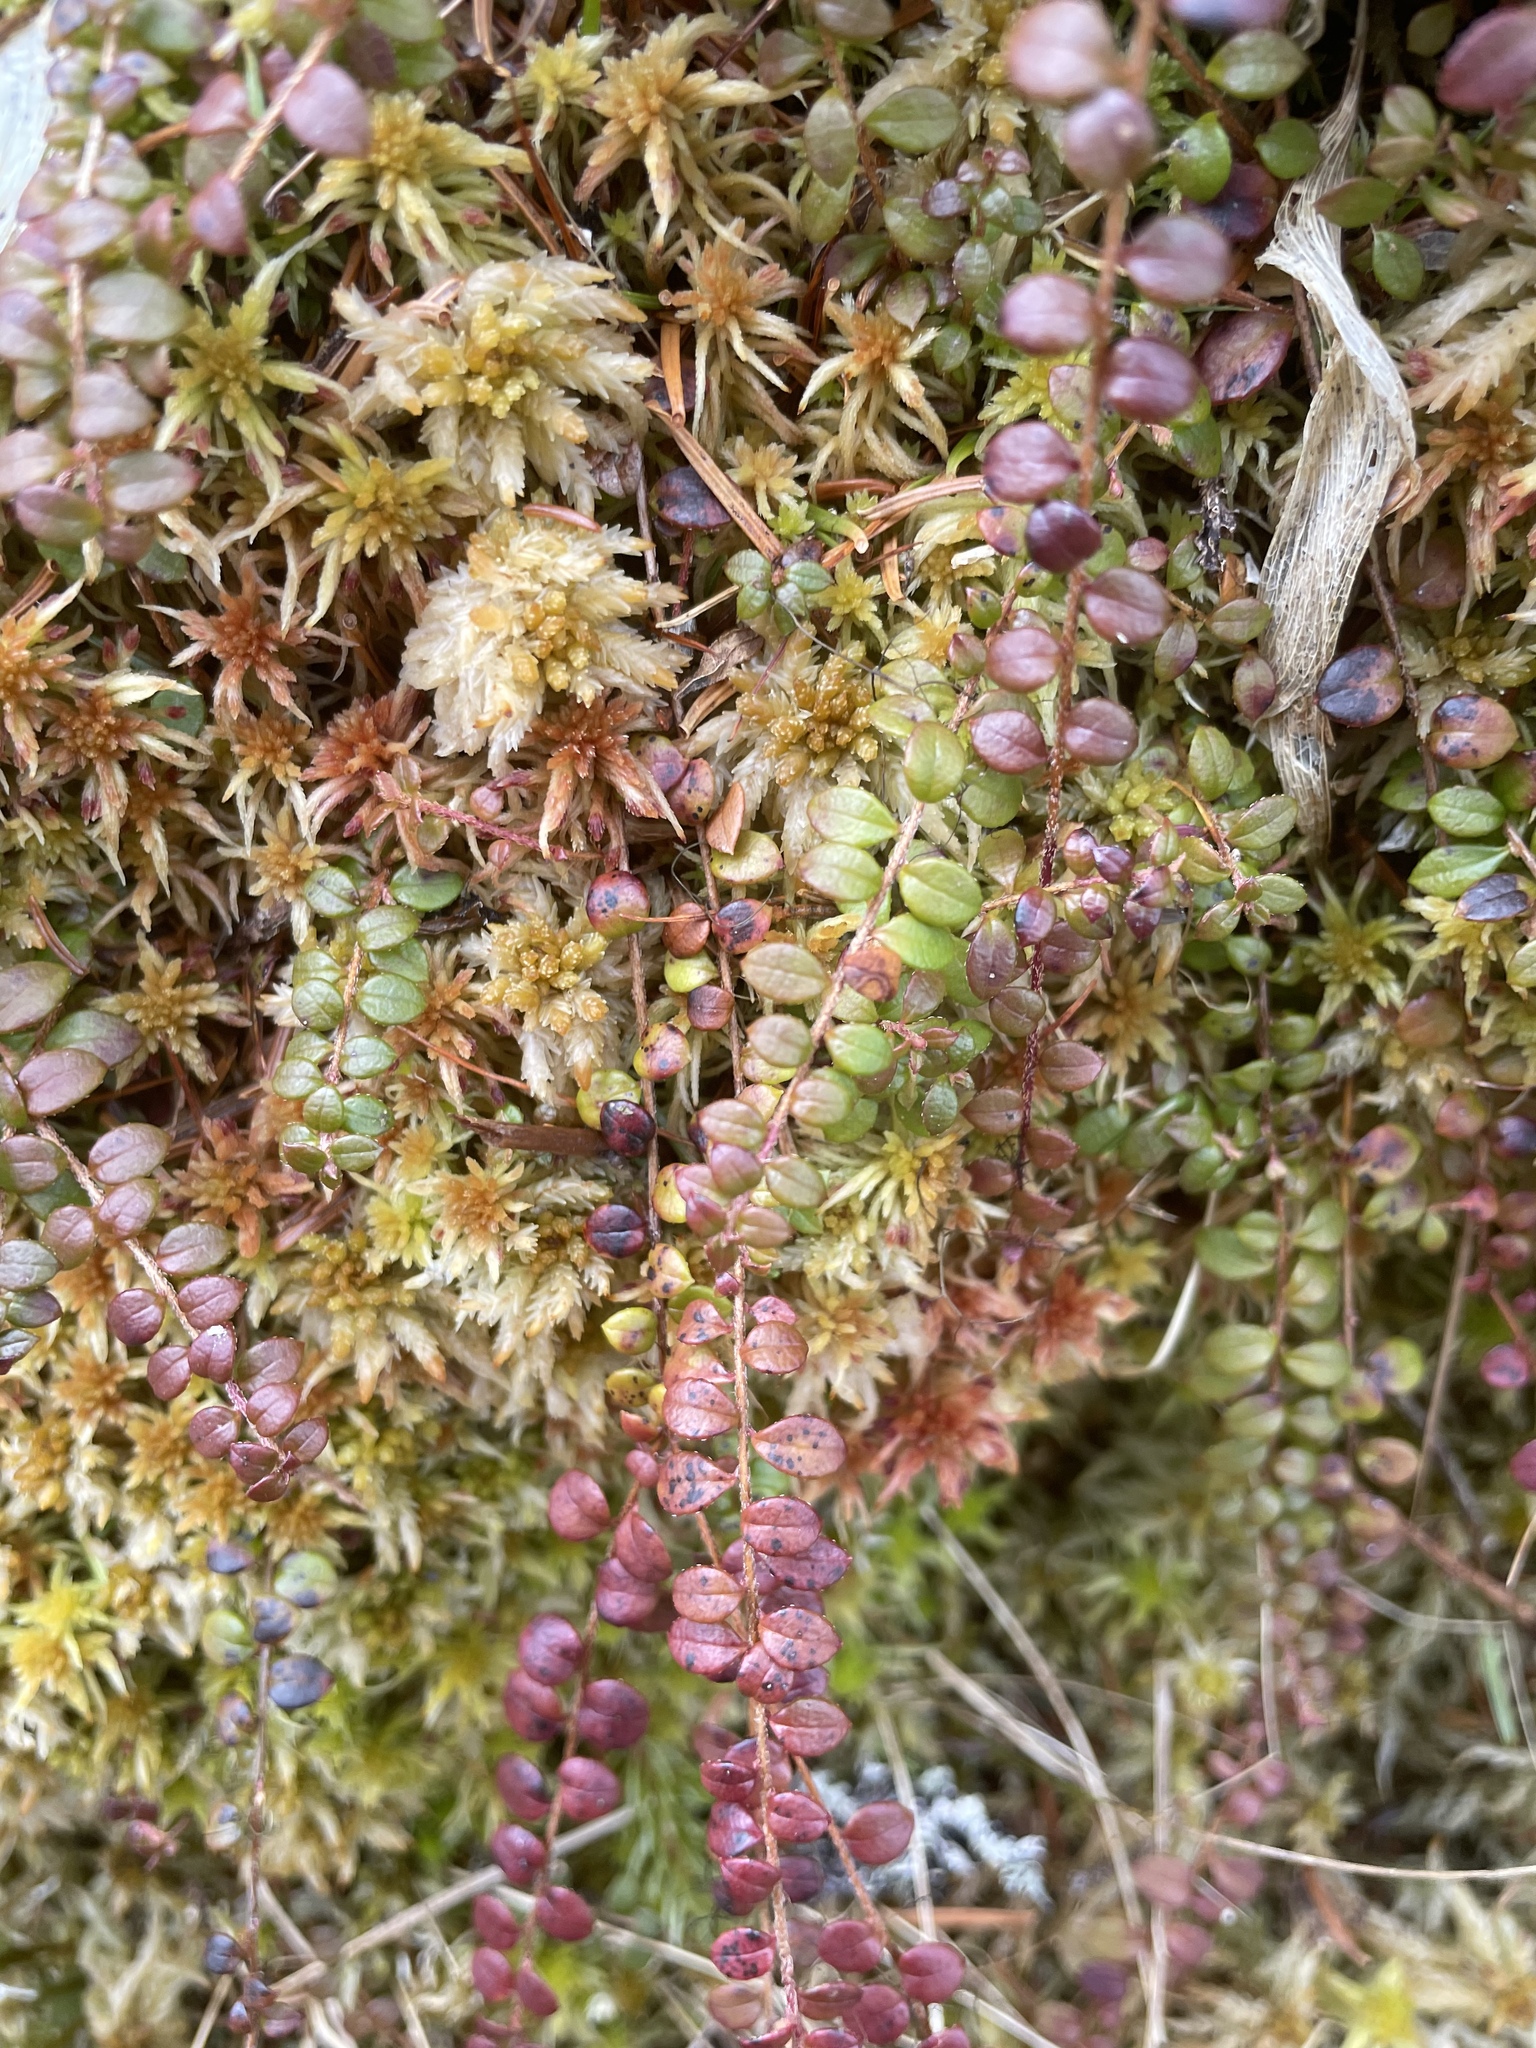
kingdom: Plantae
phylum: Tracheophyta
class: Magnoliopsida
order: Ericales
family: Ericaceae
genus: Gaultheria
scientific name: Gaultheria hispidula
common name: Cancer wintergreen
